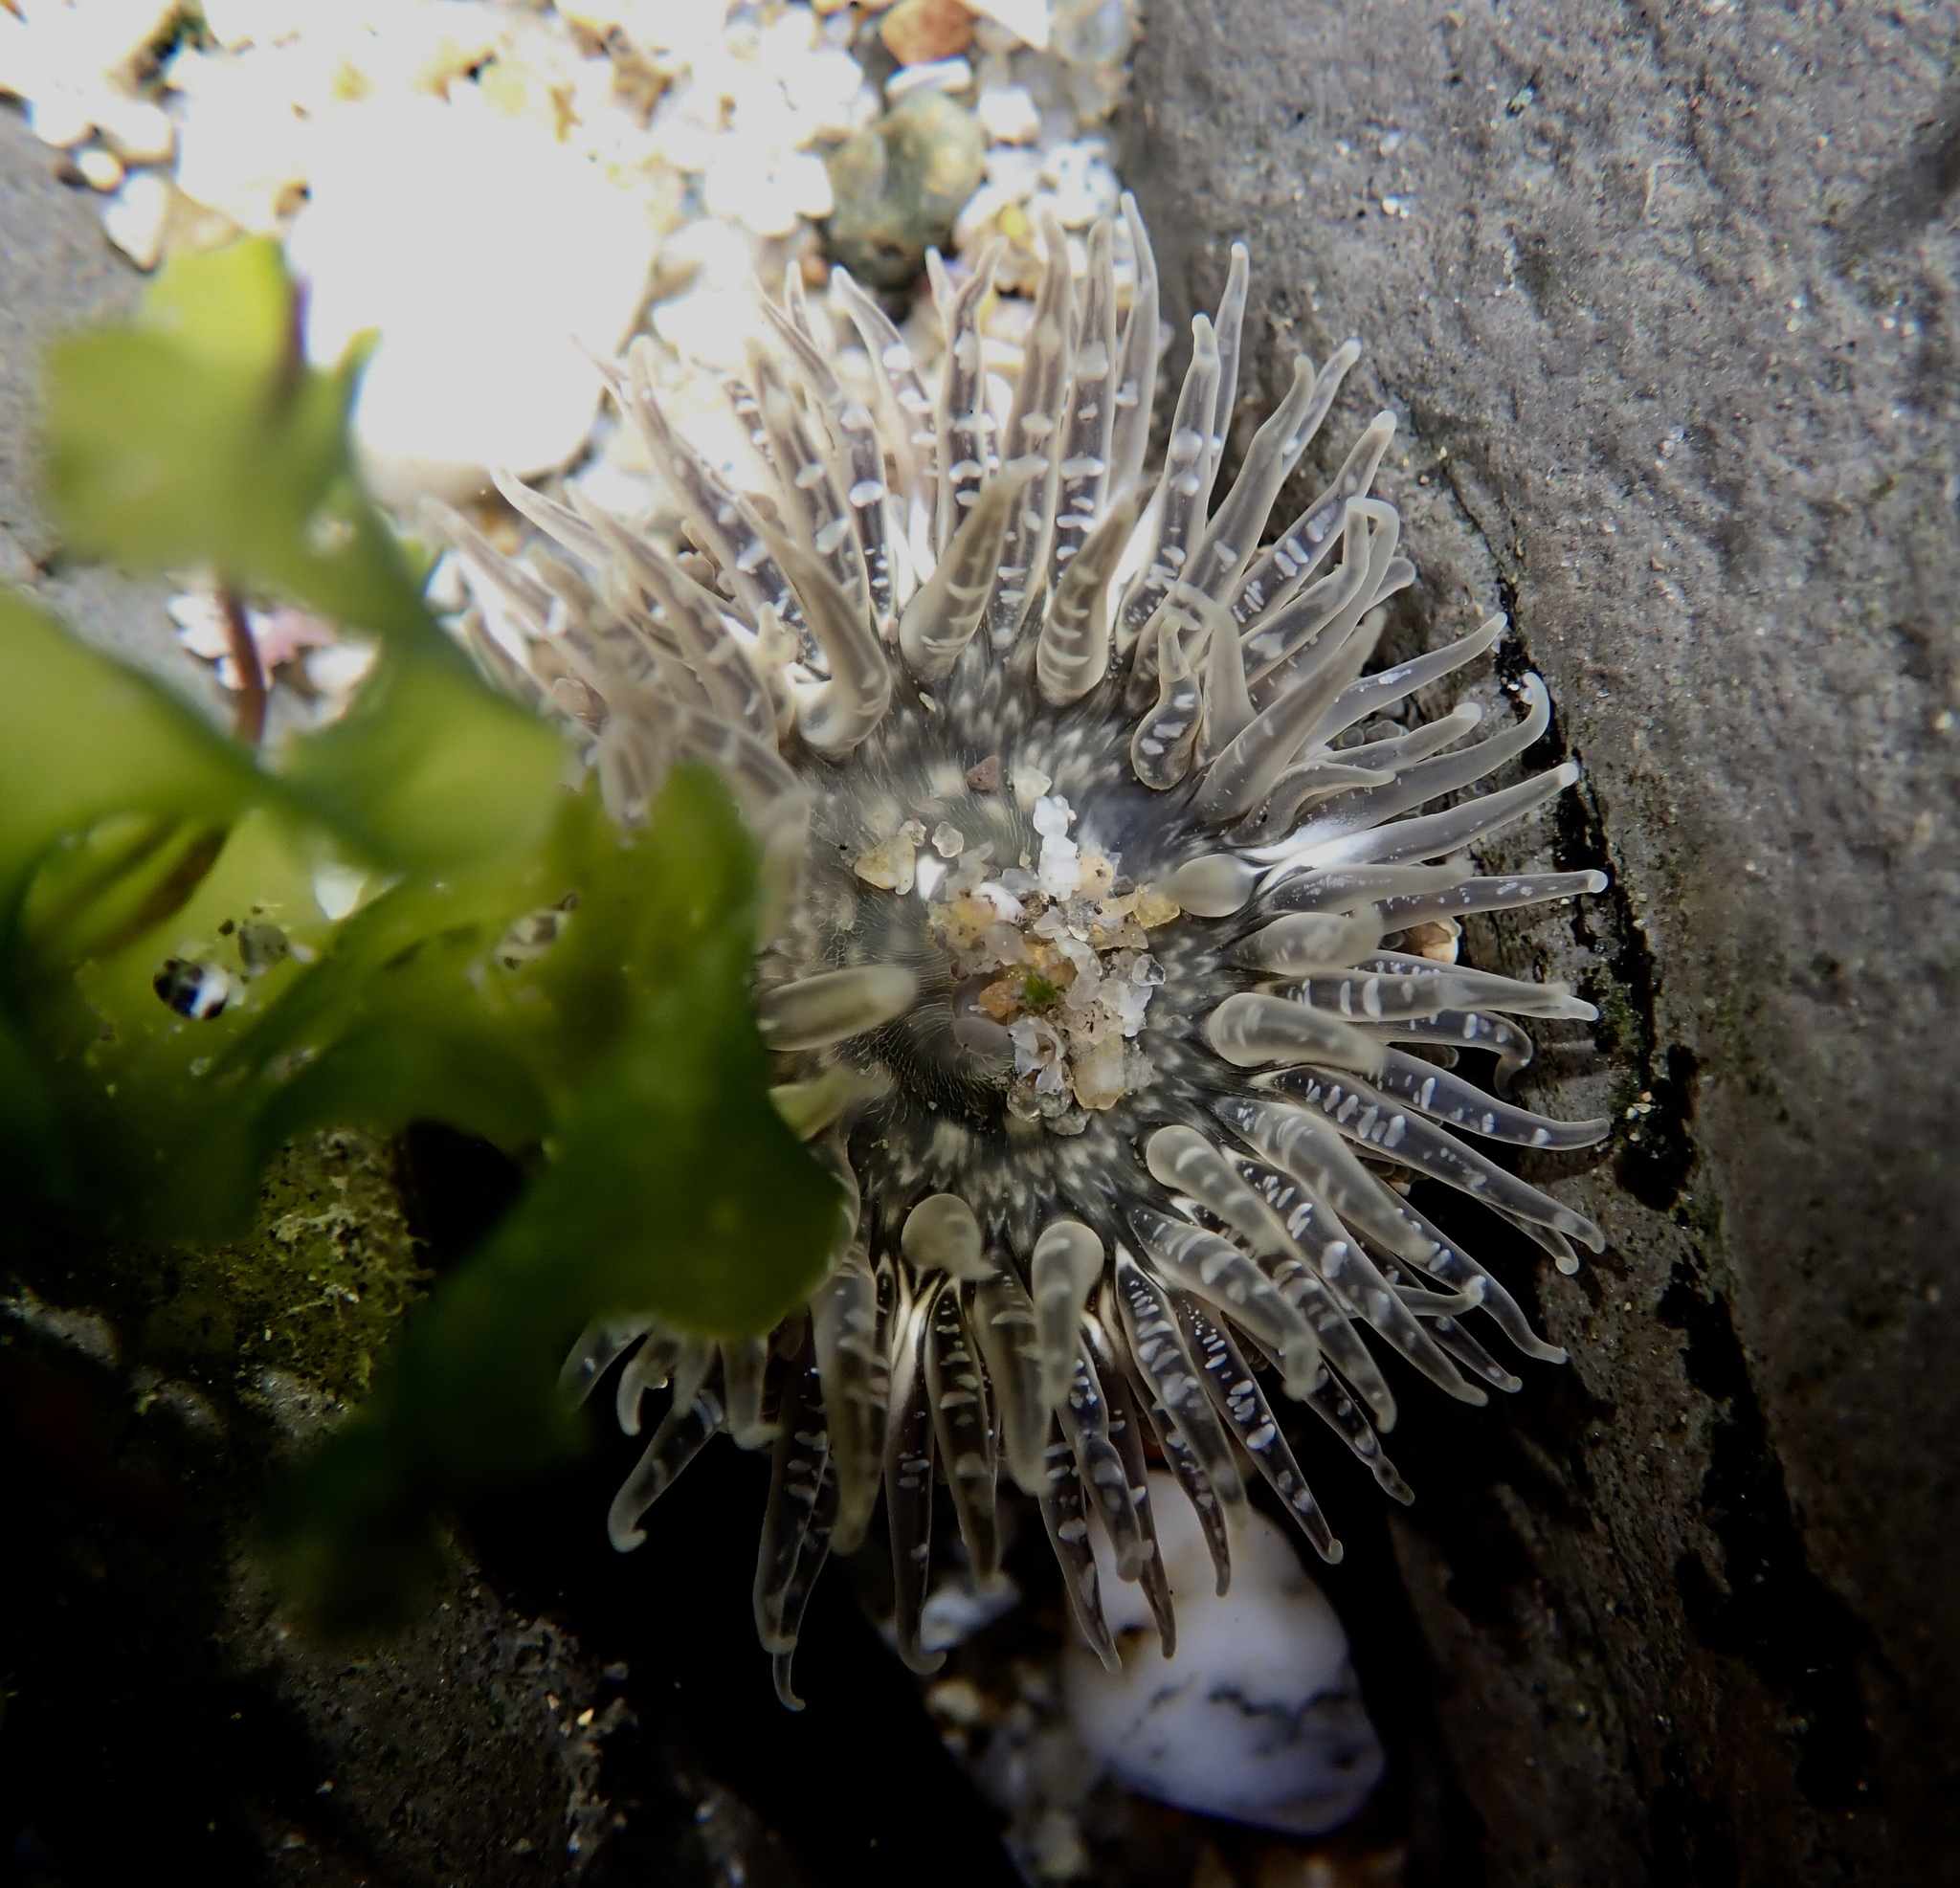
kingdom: Animalia
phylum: Cnidaria
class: Anthozoa
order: Actiniaria
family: Actiniidae
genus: Anthopleura
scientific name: Anthopleura artemisia
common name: Buried sea anemone
